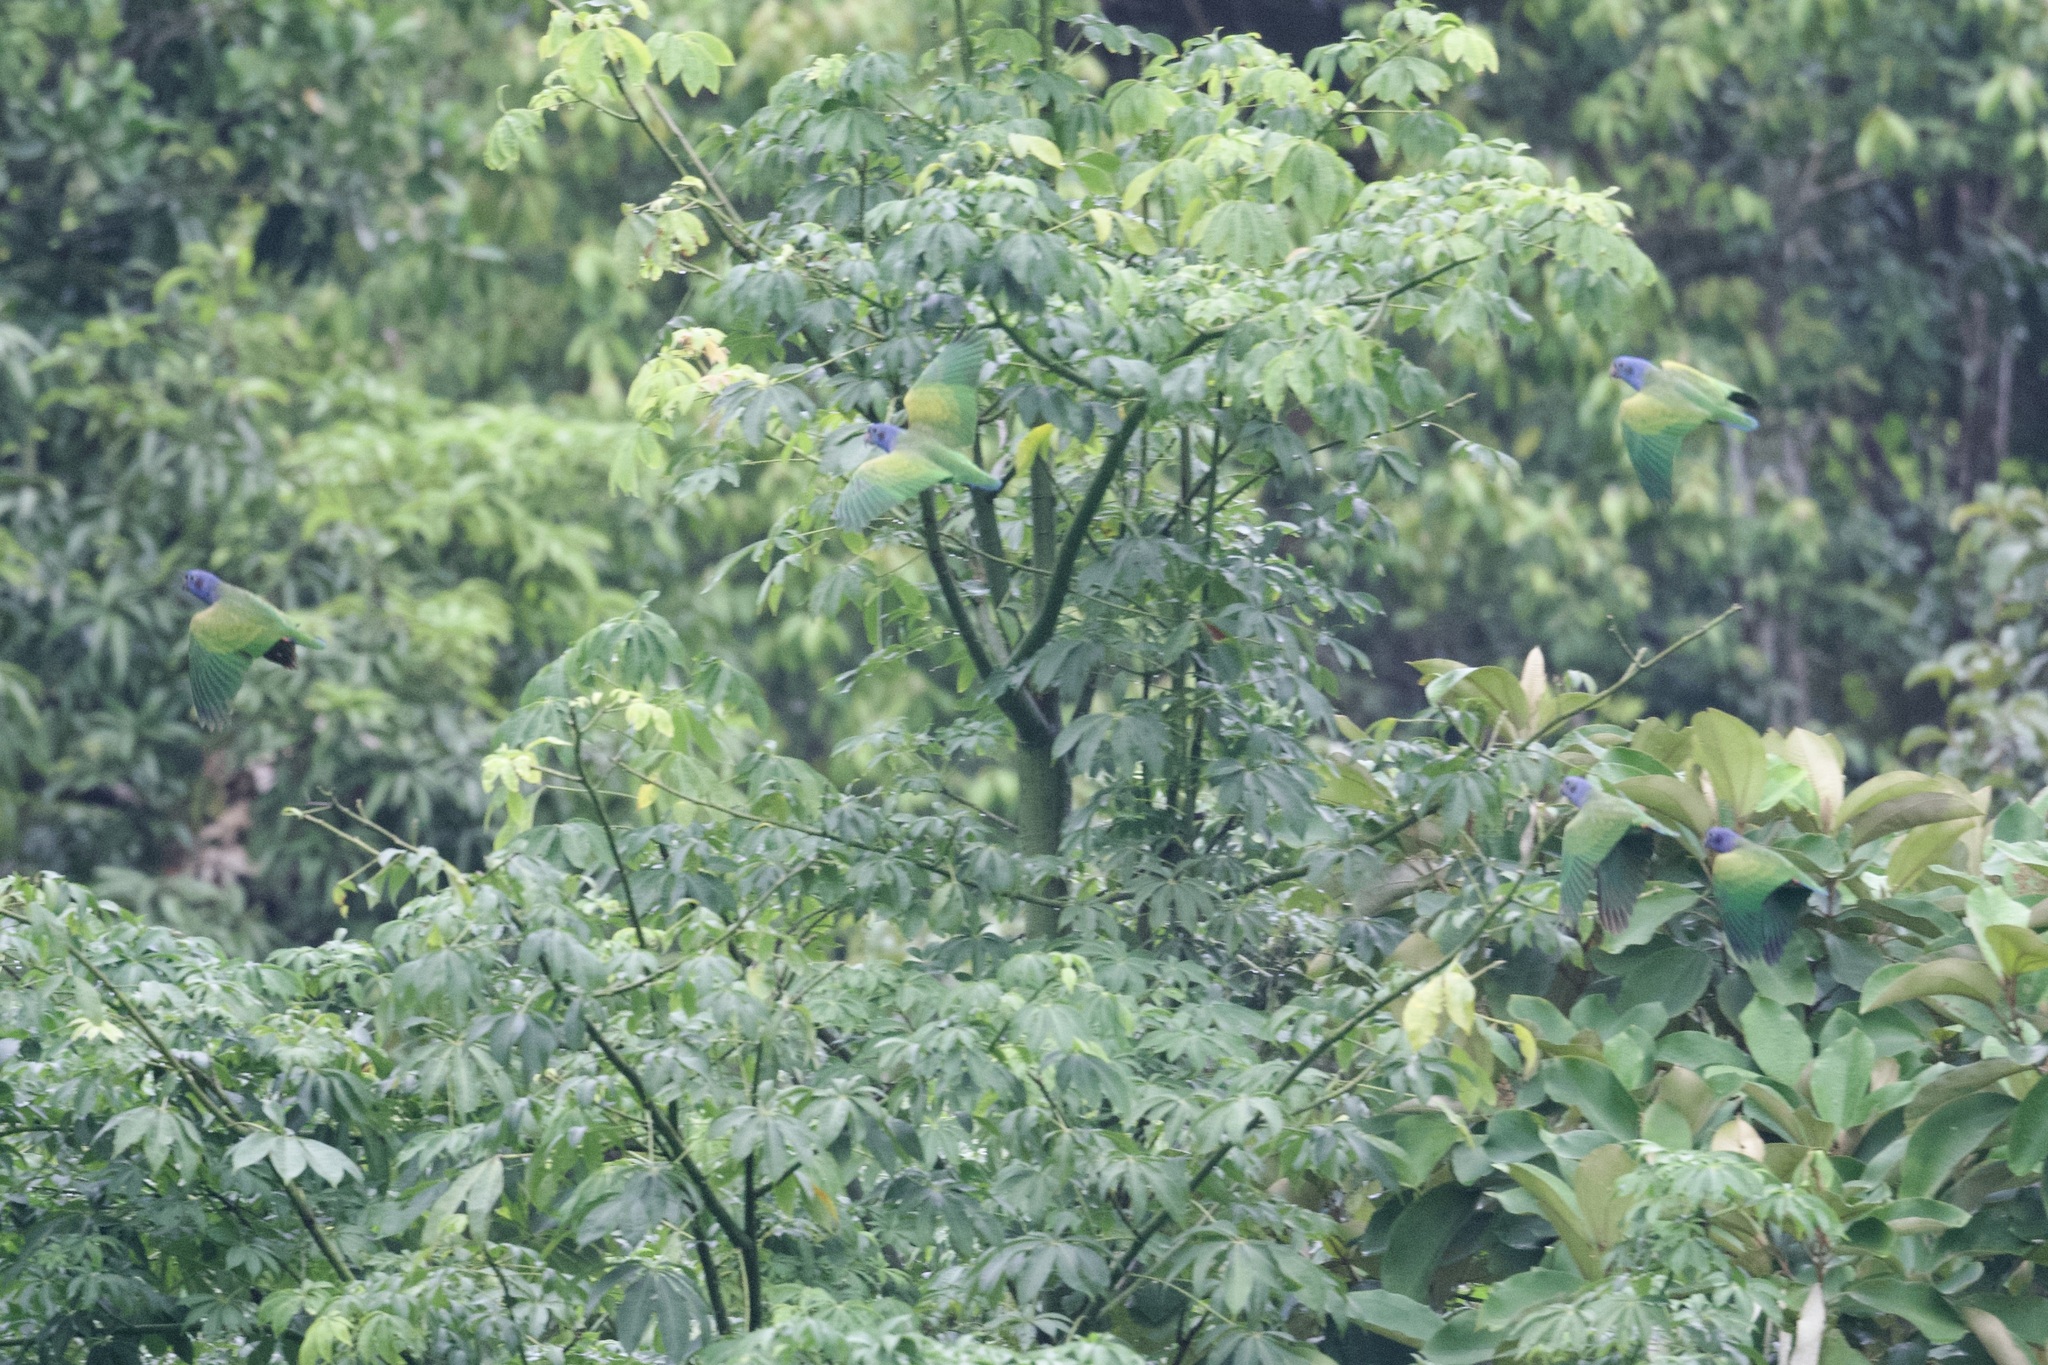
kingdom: Animalia
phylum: Chordata
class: Aves
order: Psittaciformes
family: Psittacidae
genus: Pionus
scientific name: Pionus menstruus
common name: Blue-headed parrot
